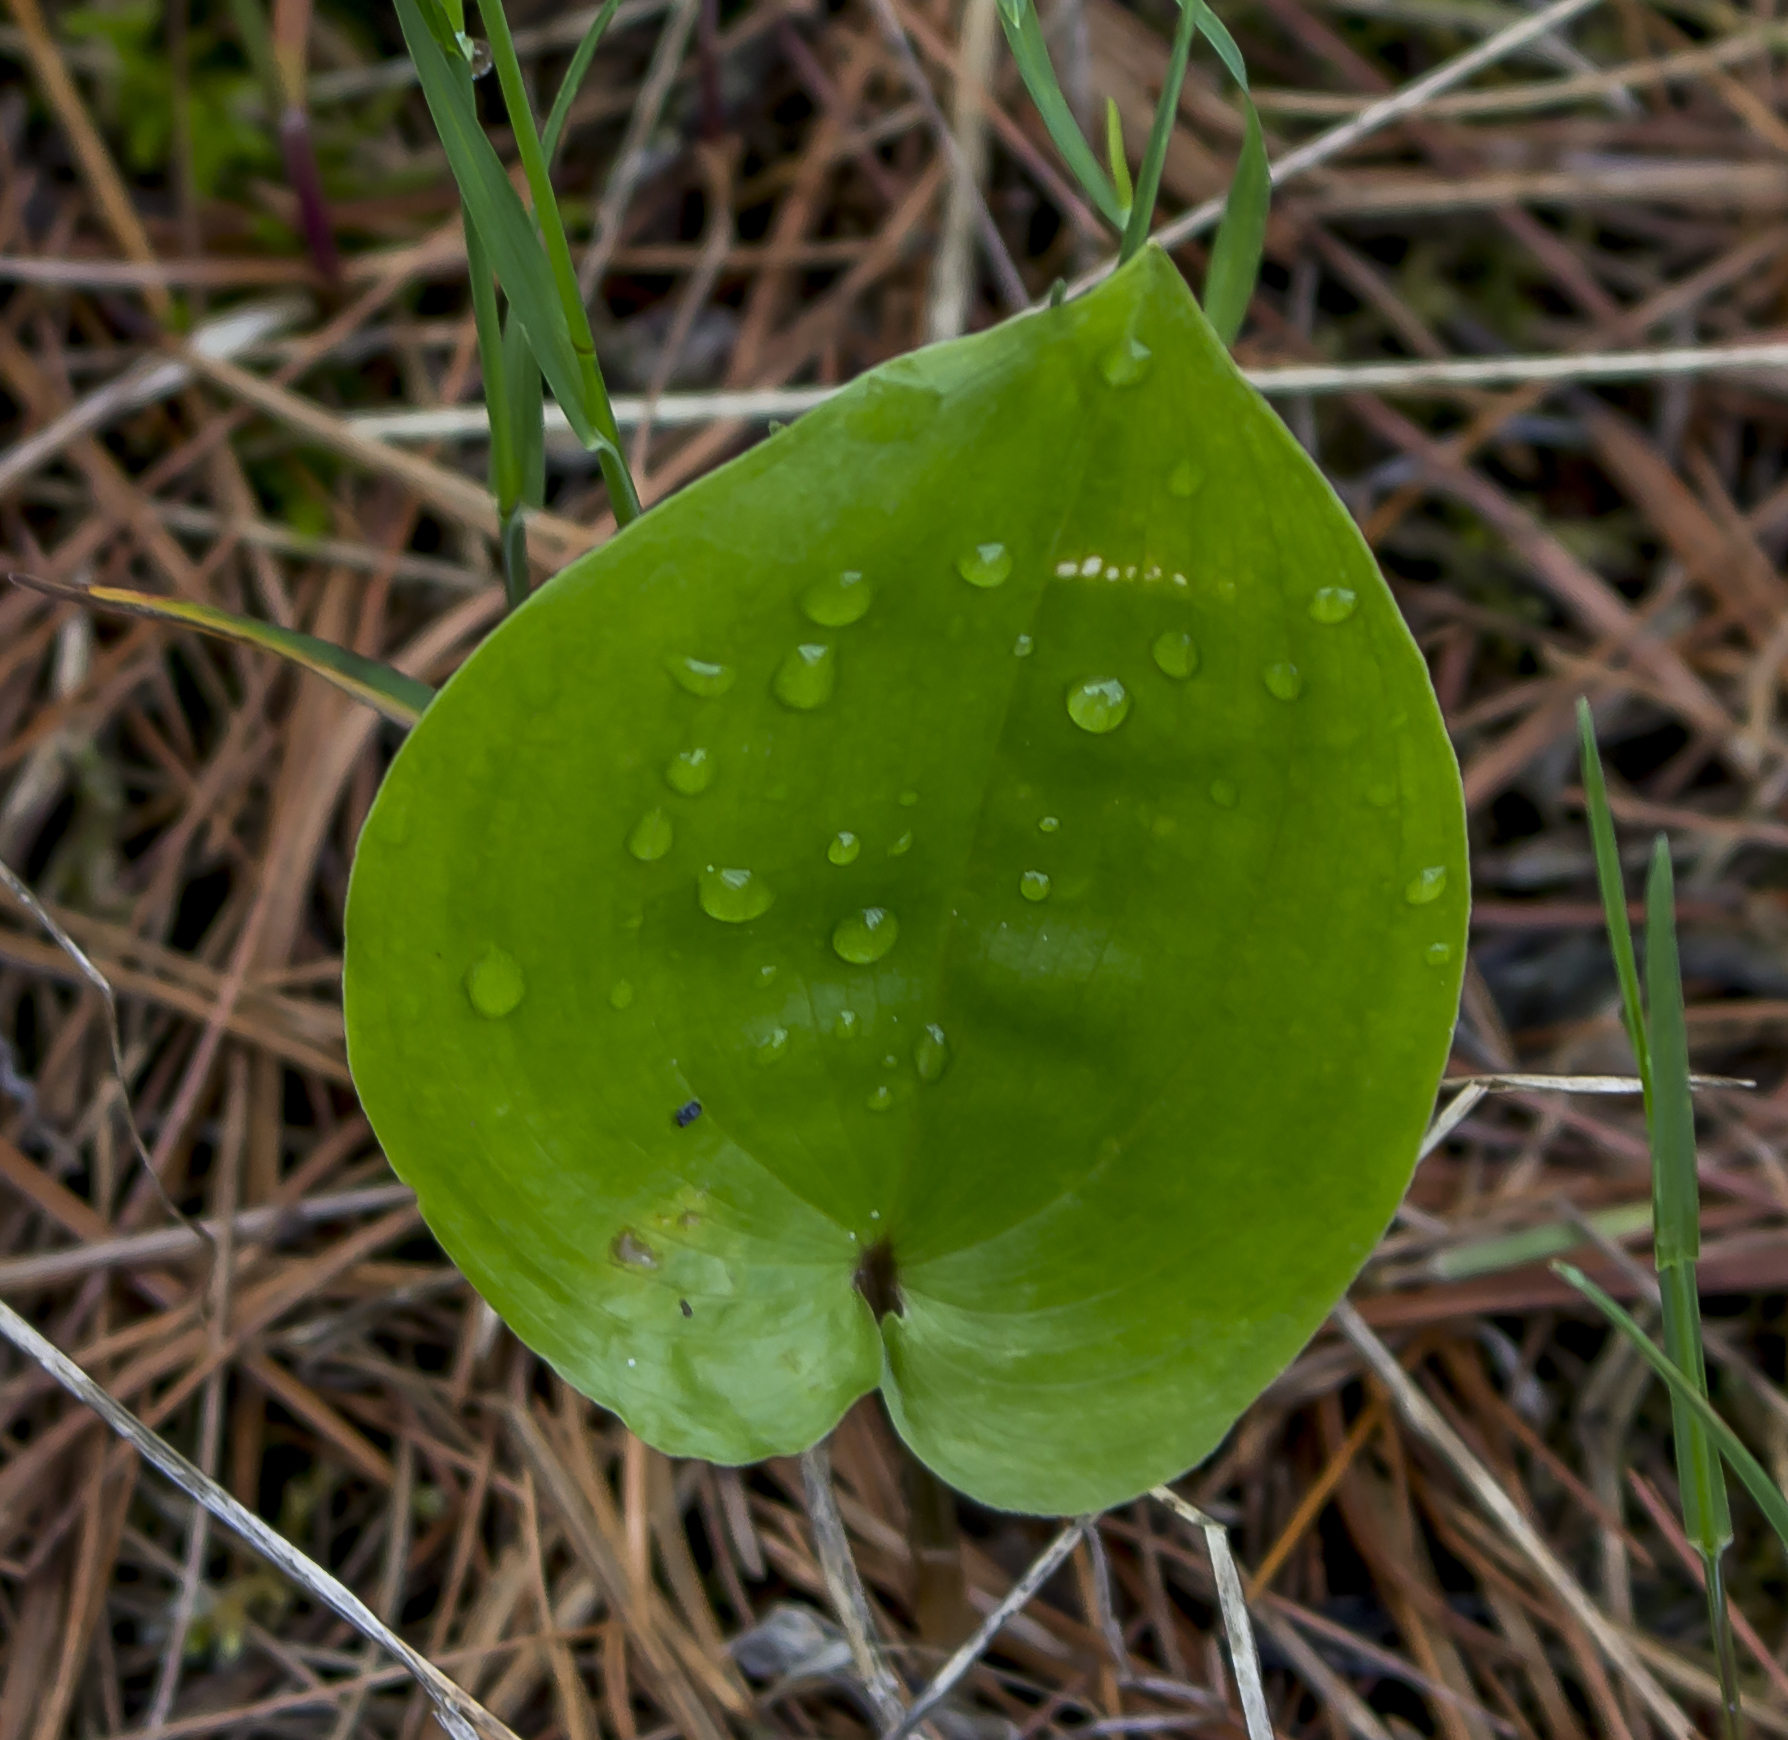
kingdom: Plantae
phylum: Tracheophyta
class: Liliopsida
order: Asparagales
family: Asparagaceae
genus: Maianthemum
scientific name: Maianthemum canadense
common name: False lily-of-the-valley
